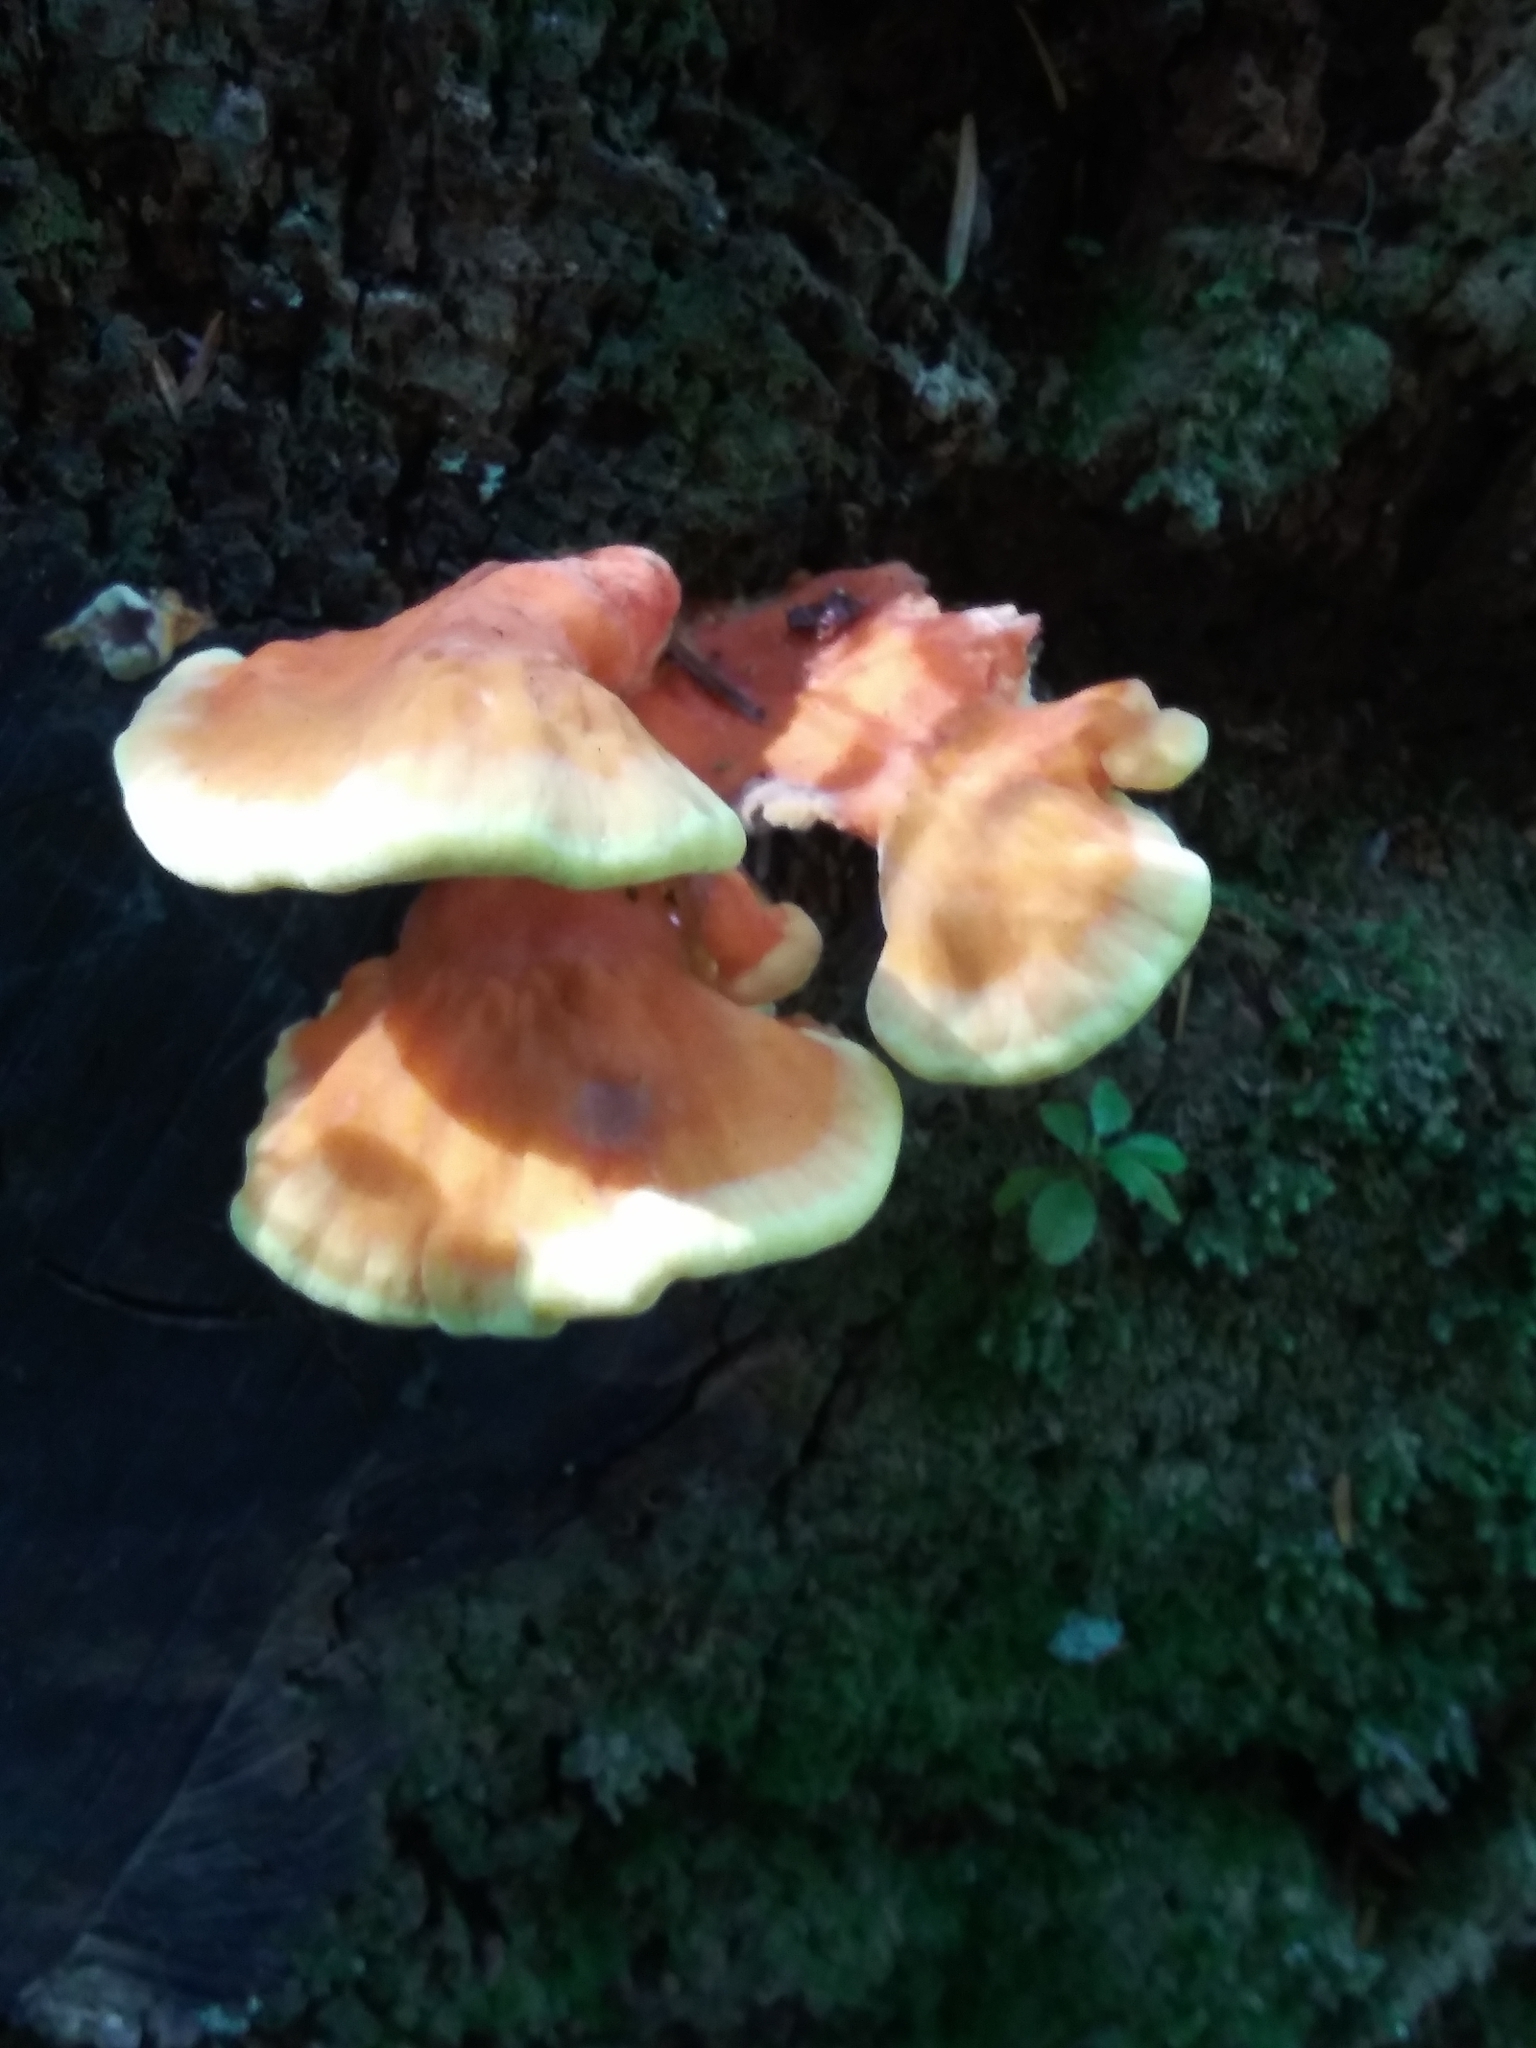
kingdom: Fungi
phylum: Basidiomycota
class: Agaricomycetes
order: Polyporales
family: Laetiporaceae
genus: Laetiporus
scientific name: Laetiporus conifericola
